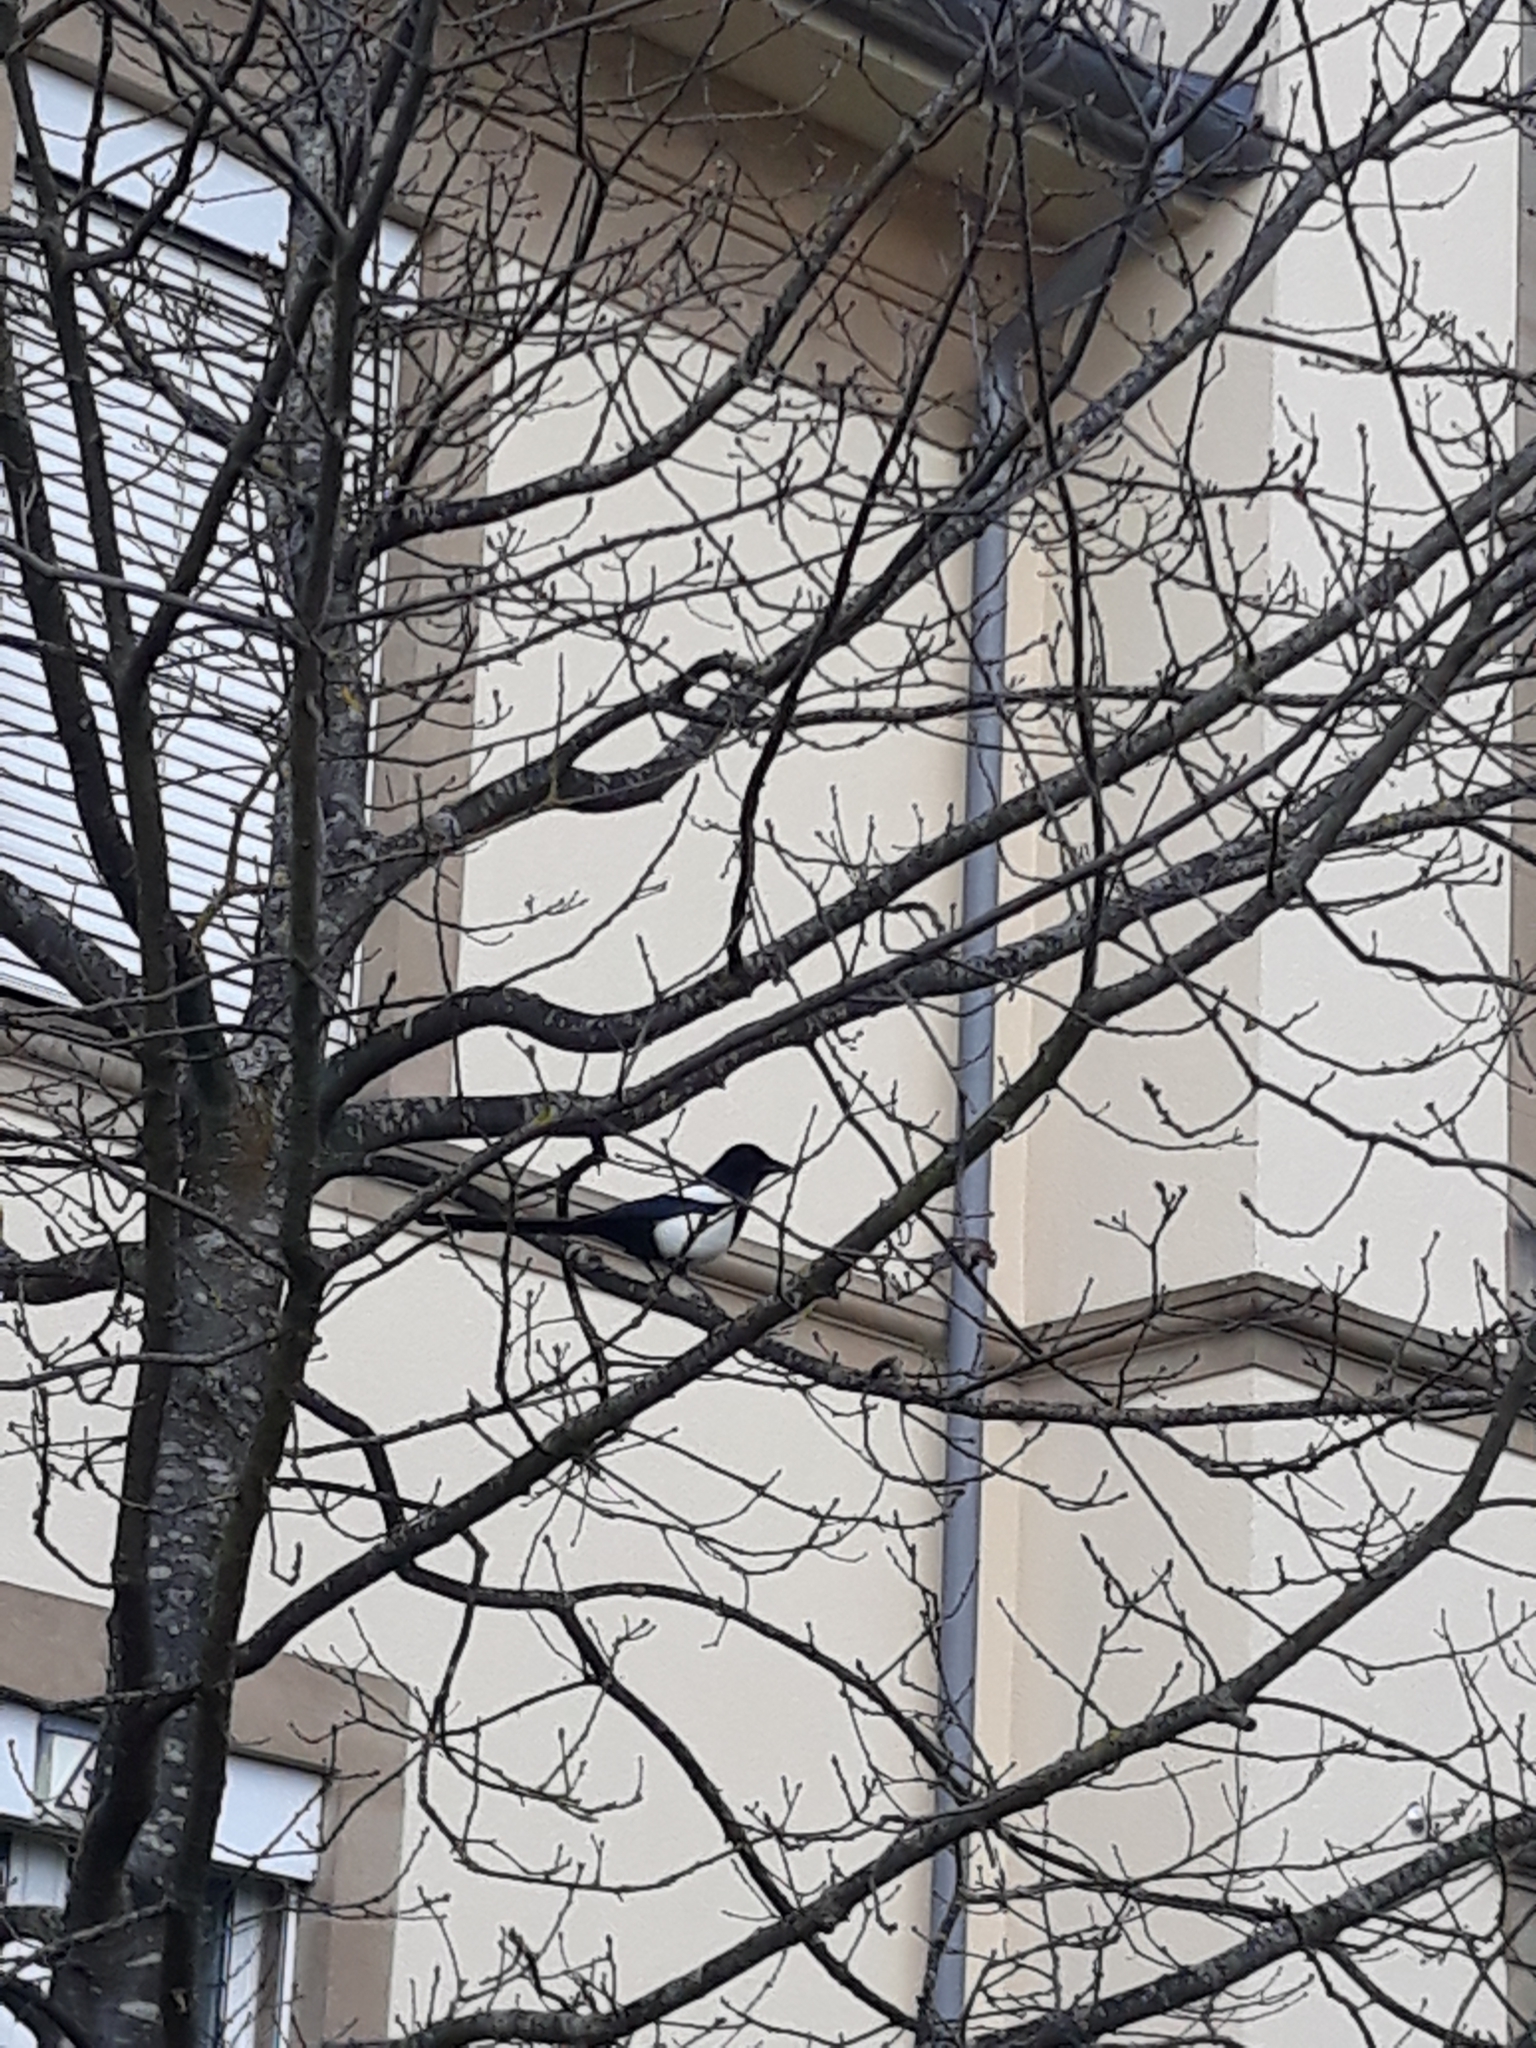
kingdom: Animalia
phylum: Chordata
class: Aves
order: Passeriformes
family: Corvidae
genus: Pica
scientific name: Pica pica
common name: Eurasian magpie
